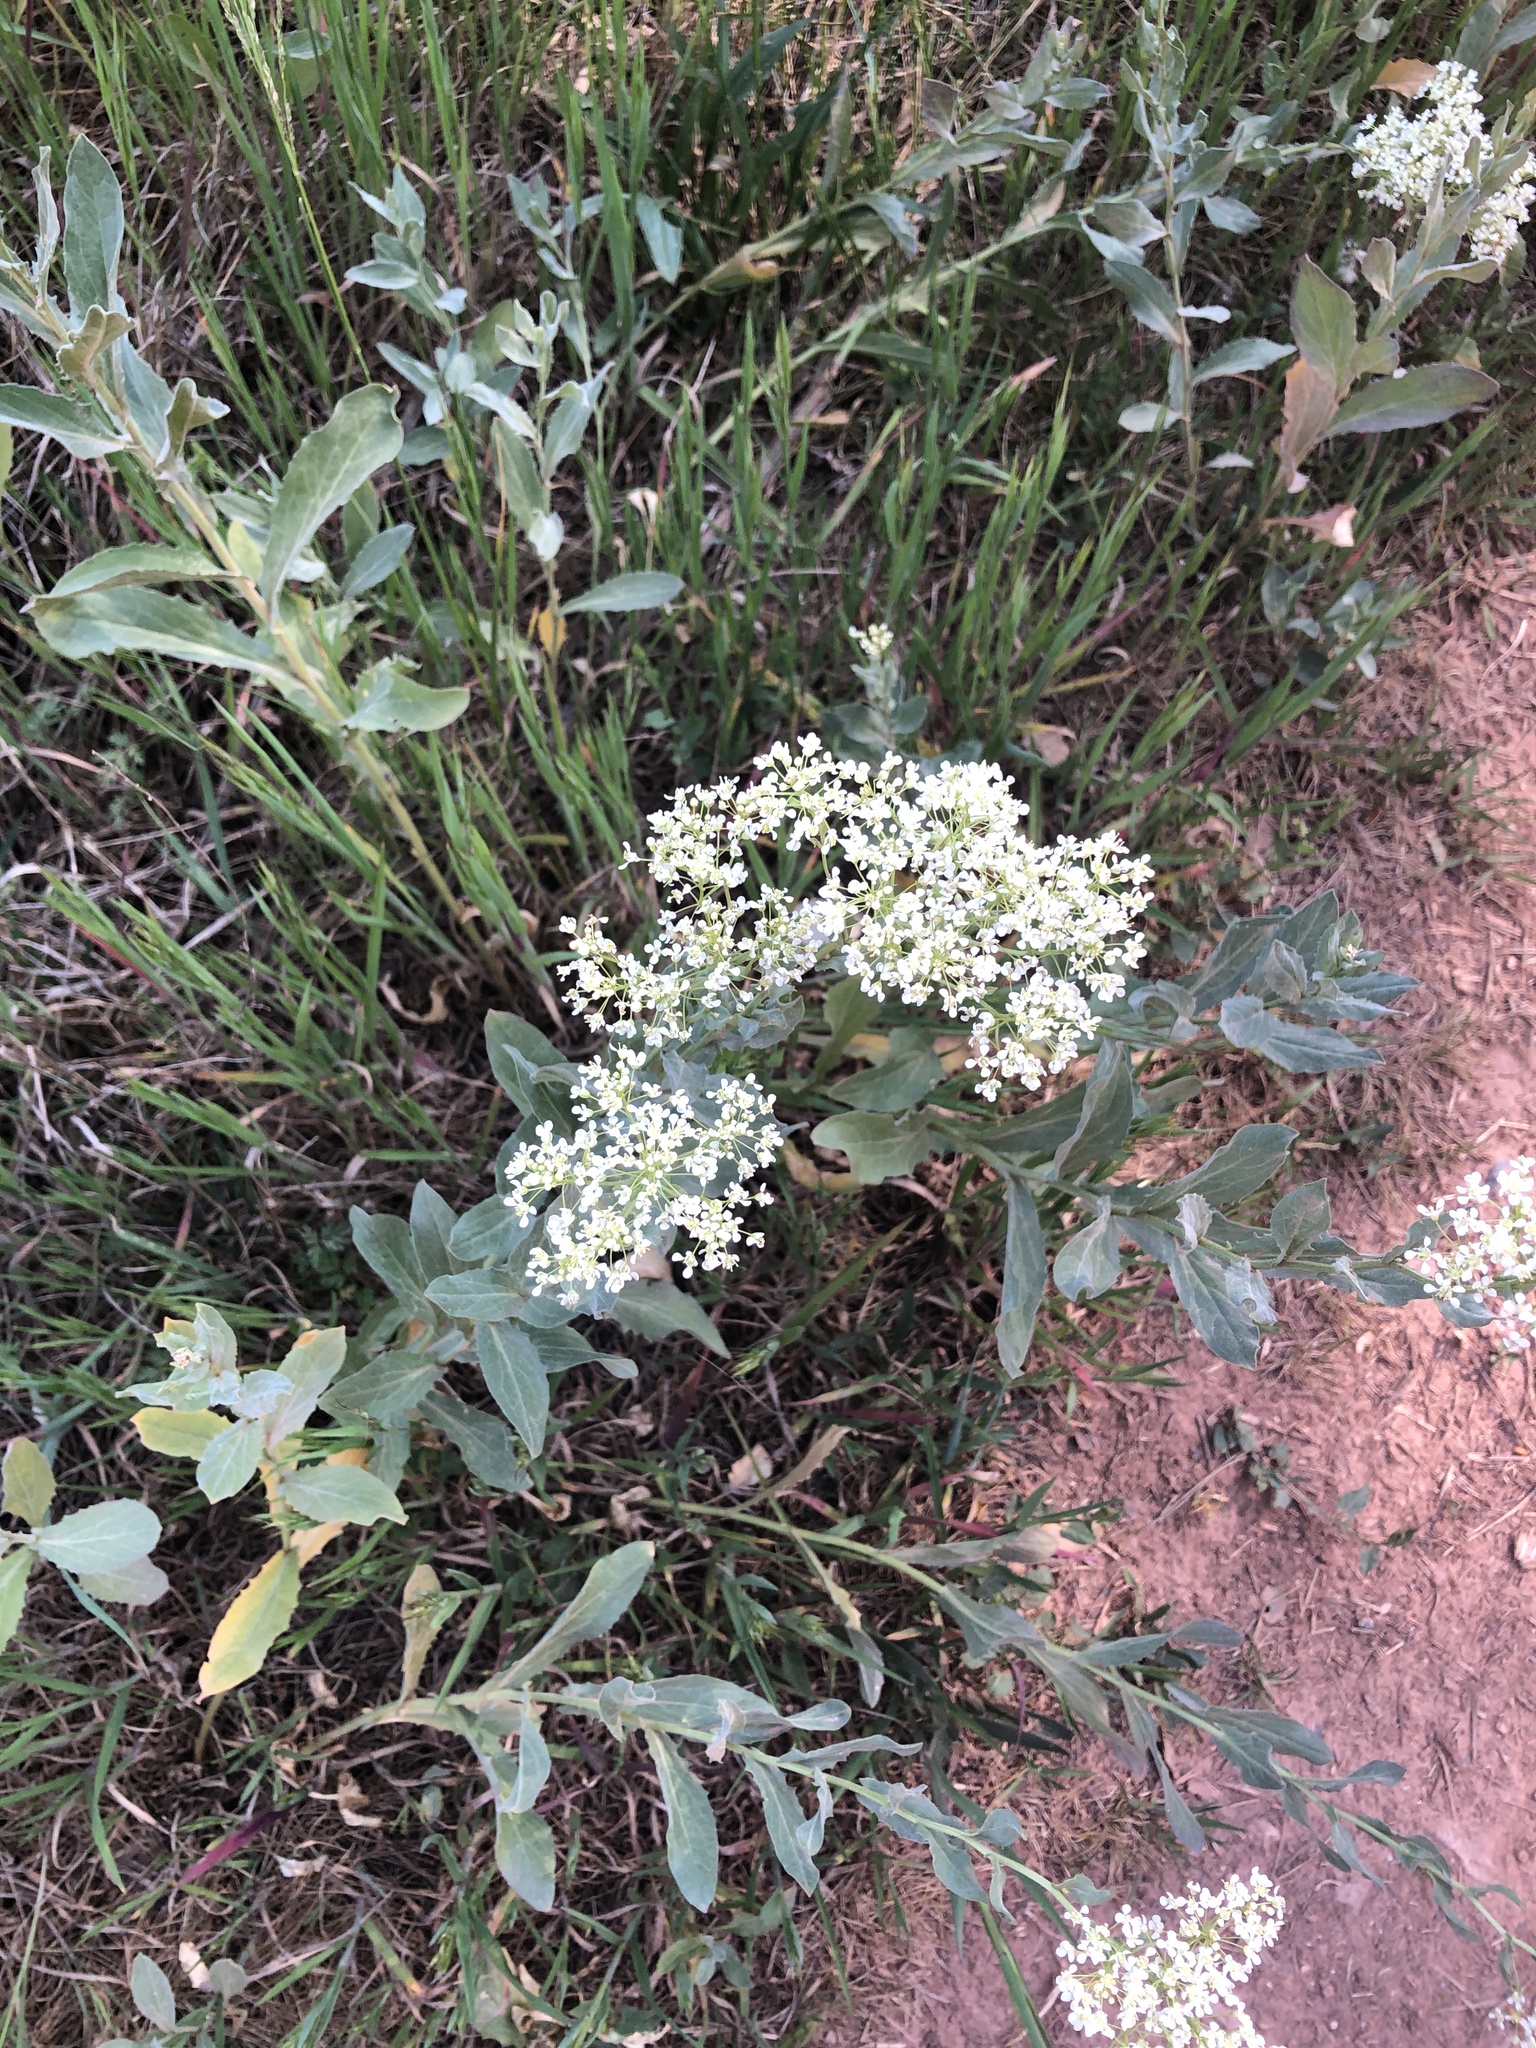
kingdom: Plantae
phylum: Tracheophyta
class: Magnoliopsida
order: Brassicales
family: Brassicaceae
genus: Lepidium
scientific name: Lepidium draba
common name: Hoary cress
